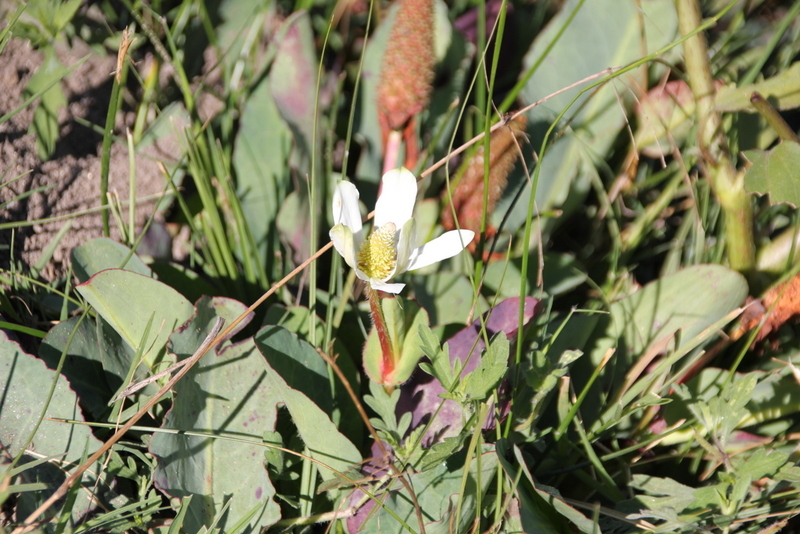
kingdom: Plantae
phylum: Tracheophyta
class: Magnoliopsida
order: Piperales
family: Saururaceae
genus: Anemopsis
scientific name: Anemopsis californica
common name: Apache-beads
